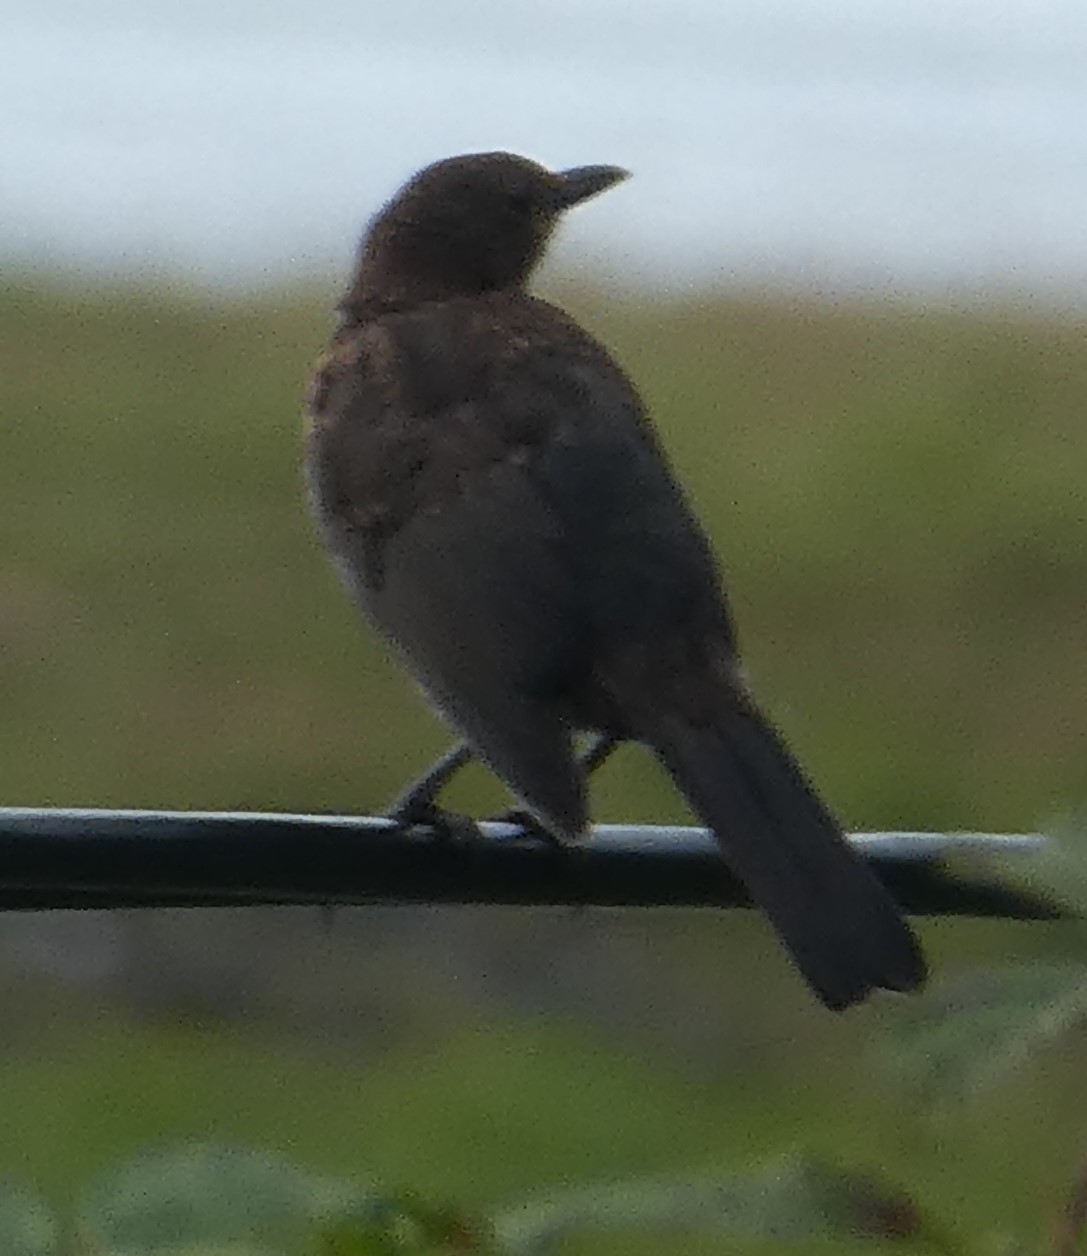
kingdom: Animalia
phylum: Chordata
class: Aves
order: Passeriformes
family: Turdidae
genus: Turdus
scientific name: Turdus merula
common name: Common blackbird
